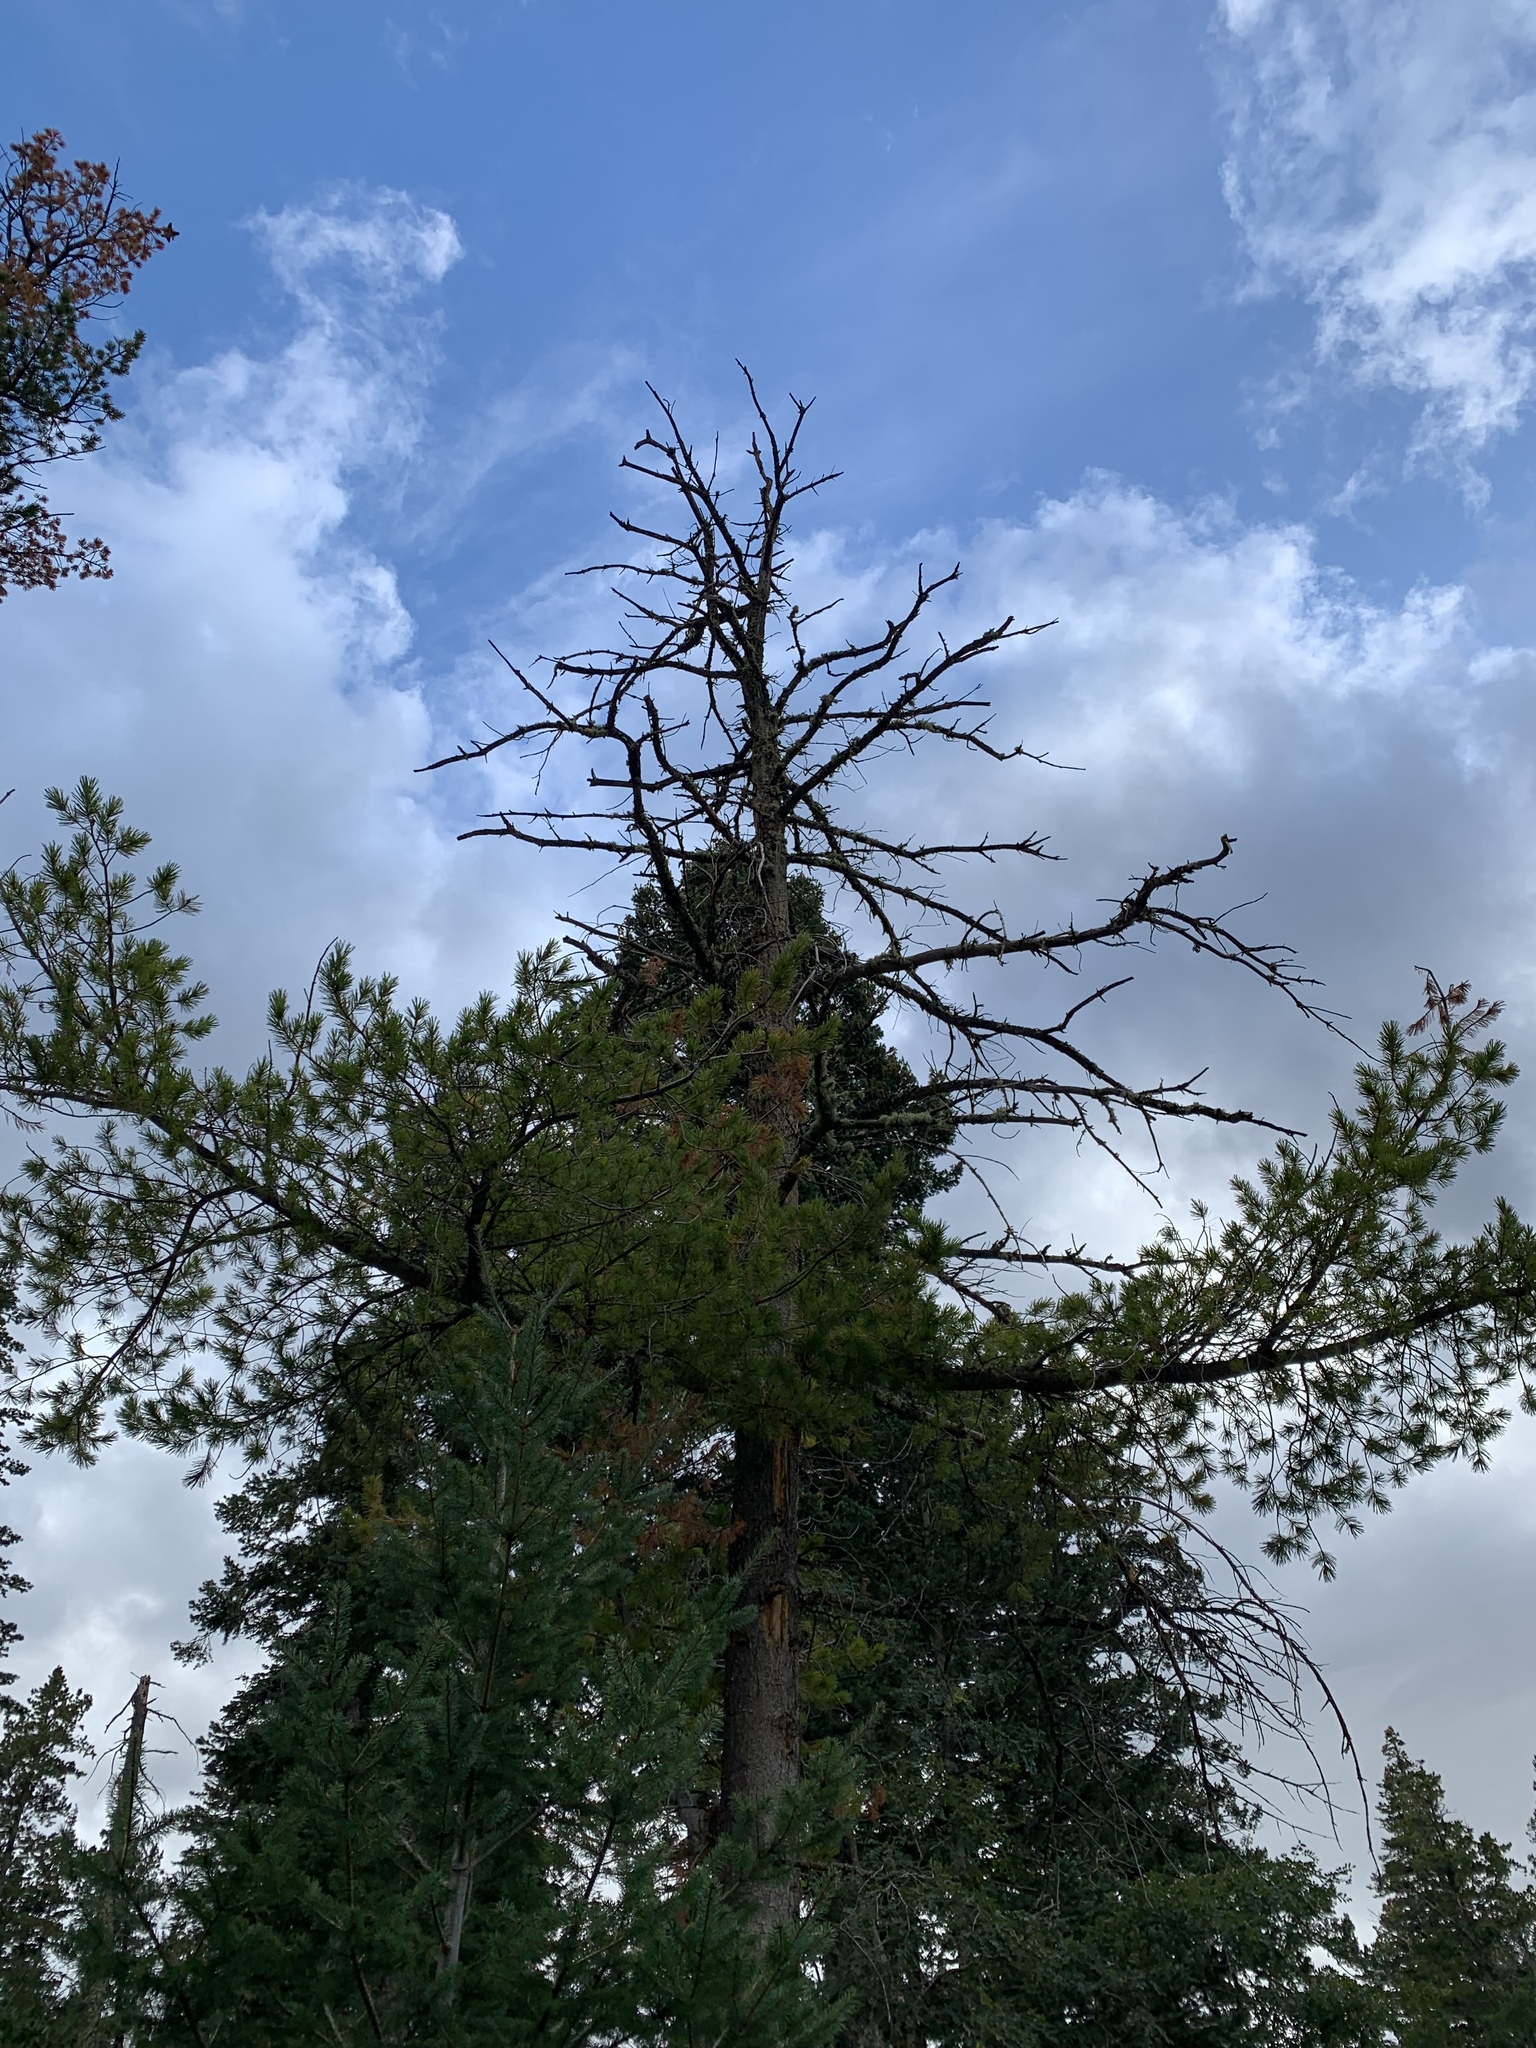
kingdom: Plantae
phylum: Tracheophyta
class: Pinopsida
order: Pinales
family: Pinaceae
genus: Pinus
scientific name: Pinus strobiformis
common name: Southwestern white pine
